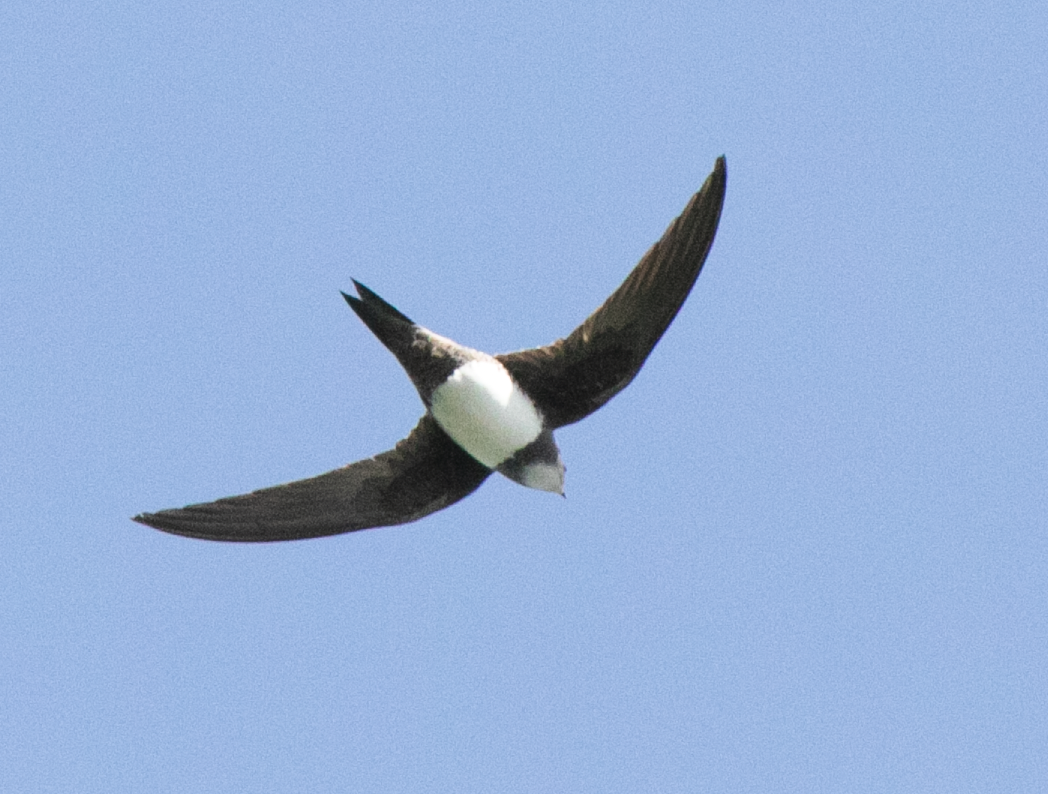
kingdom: Animalia
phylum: Chordata
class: Aves
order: Apodiformes
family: Apodidae
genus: Tachymarptis
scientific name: Tachymarptis melba
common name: Alpine swift
